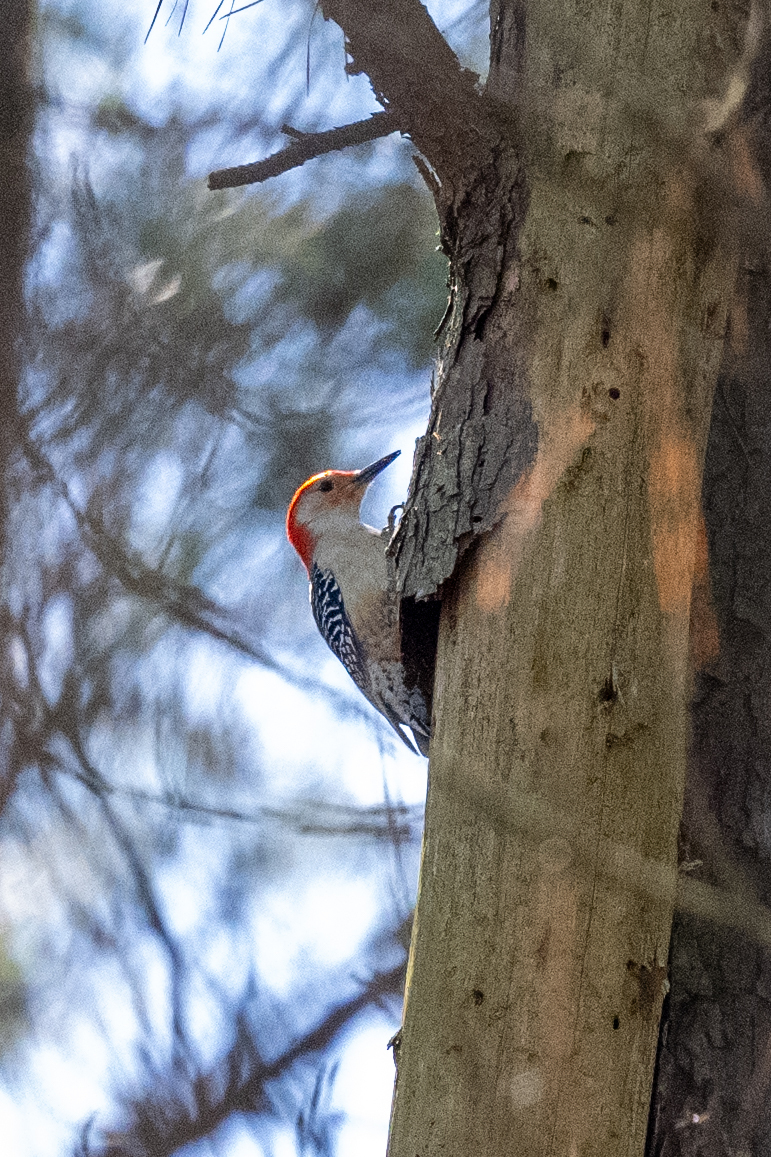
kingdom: Animalia
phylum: Chordata
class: Aves
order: Piciformes
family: Picidae
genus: Melanerpes
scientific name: Melanerpes carolinus
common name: Red-bellied woodpecker
